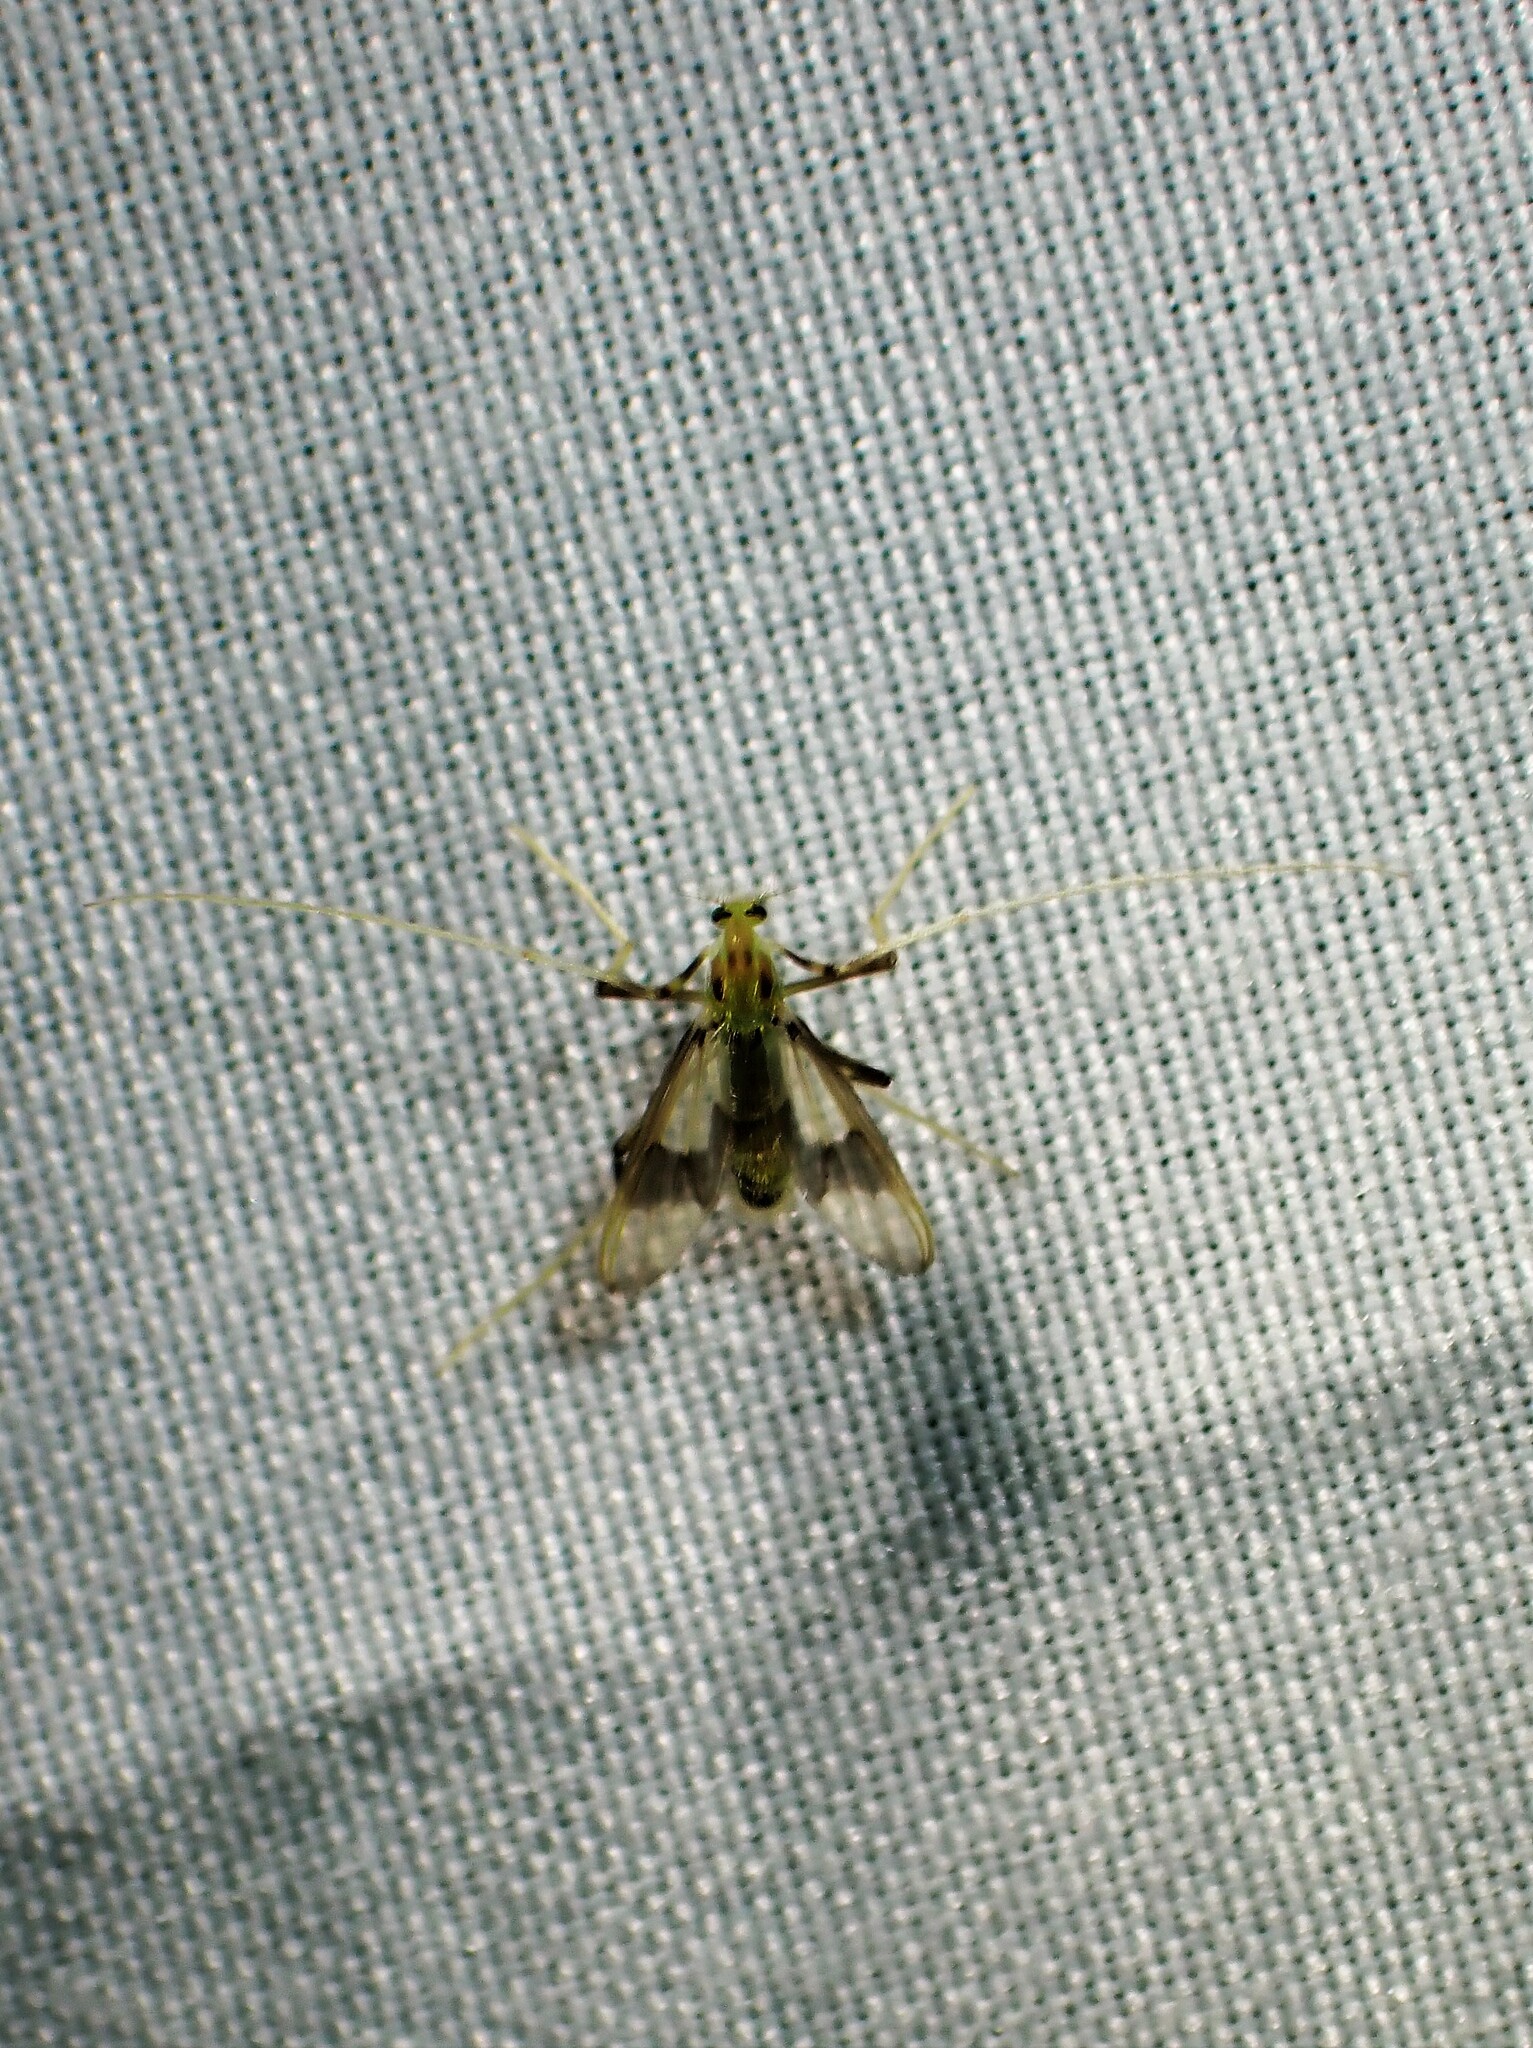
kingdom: Animalia
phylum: Arthropoda
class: Insecta
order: Diptera
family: Chironomidae
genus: Stenochironomus
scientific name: Stenochironomus poecilopterus
